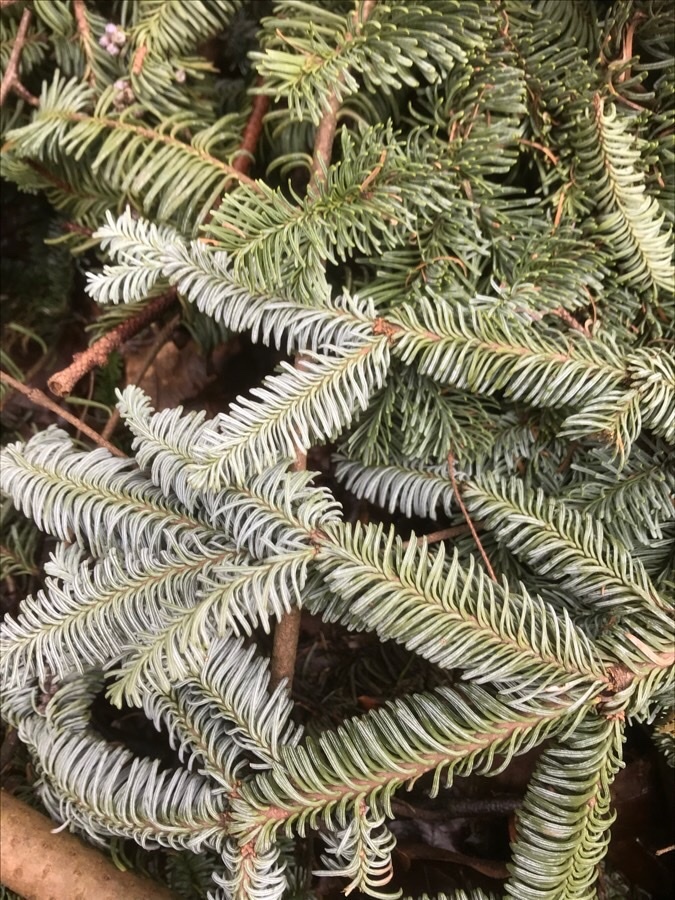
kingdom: Plantae
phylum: Tracheophyta
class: Pinopsida
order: Pinales
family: Pinaceae
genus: Abies
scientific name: Abies procera
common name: Noble fir
